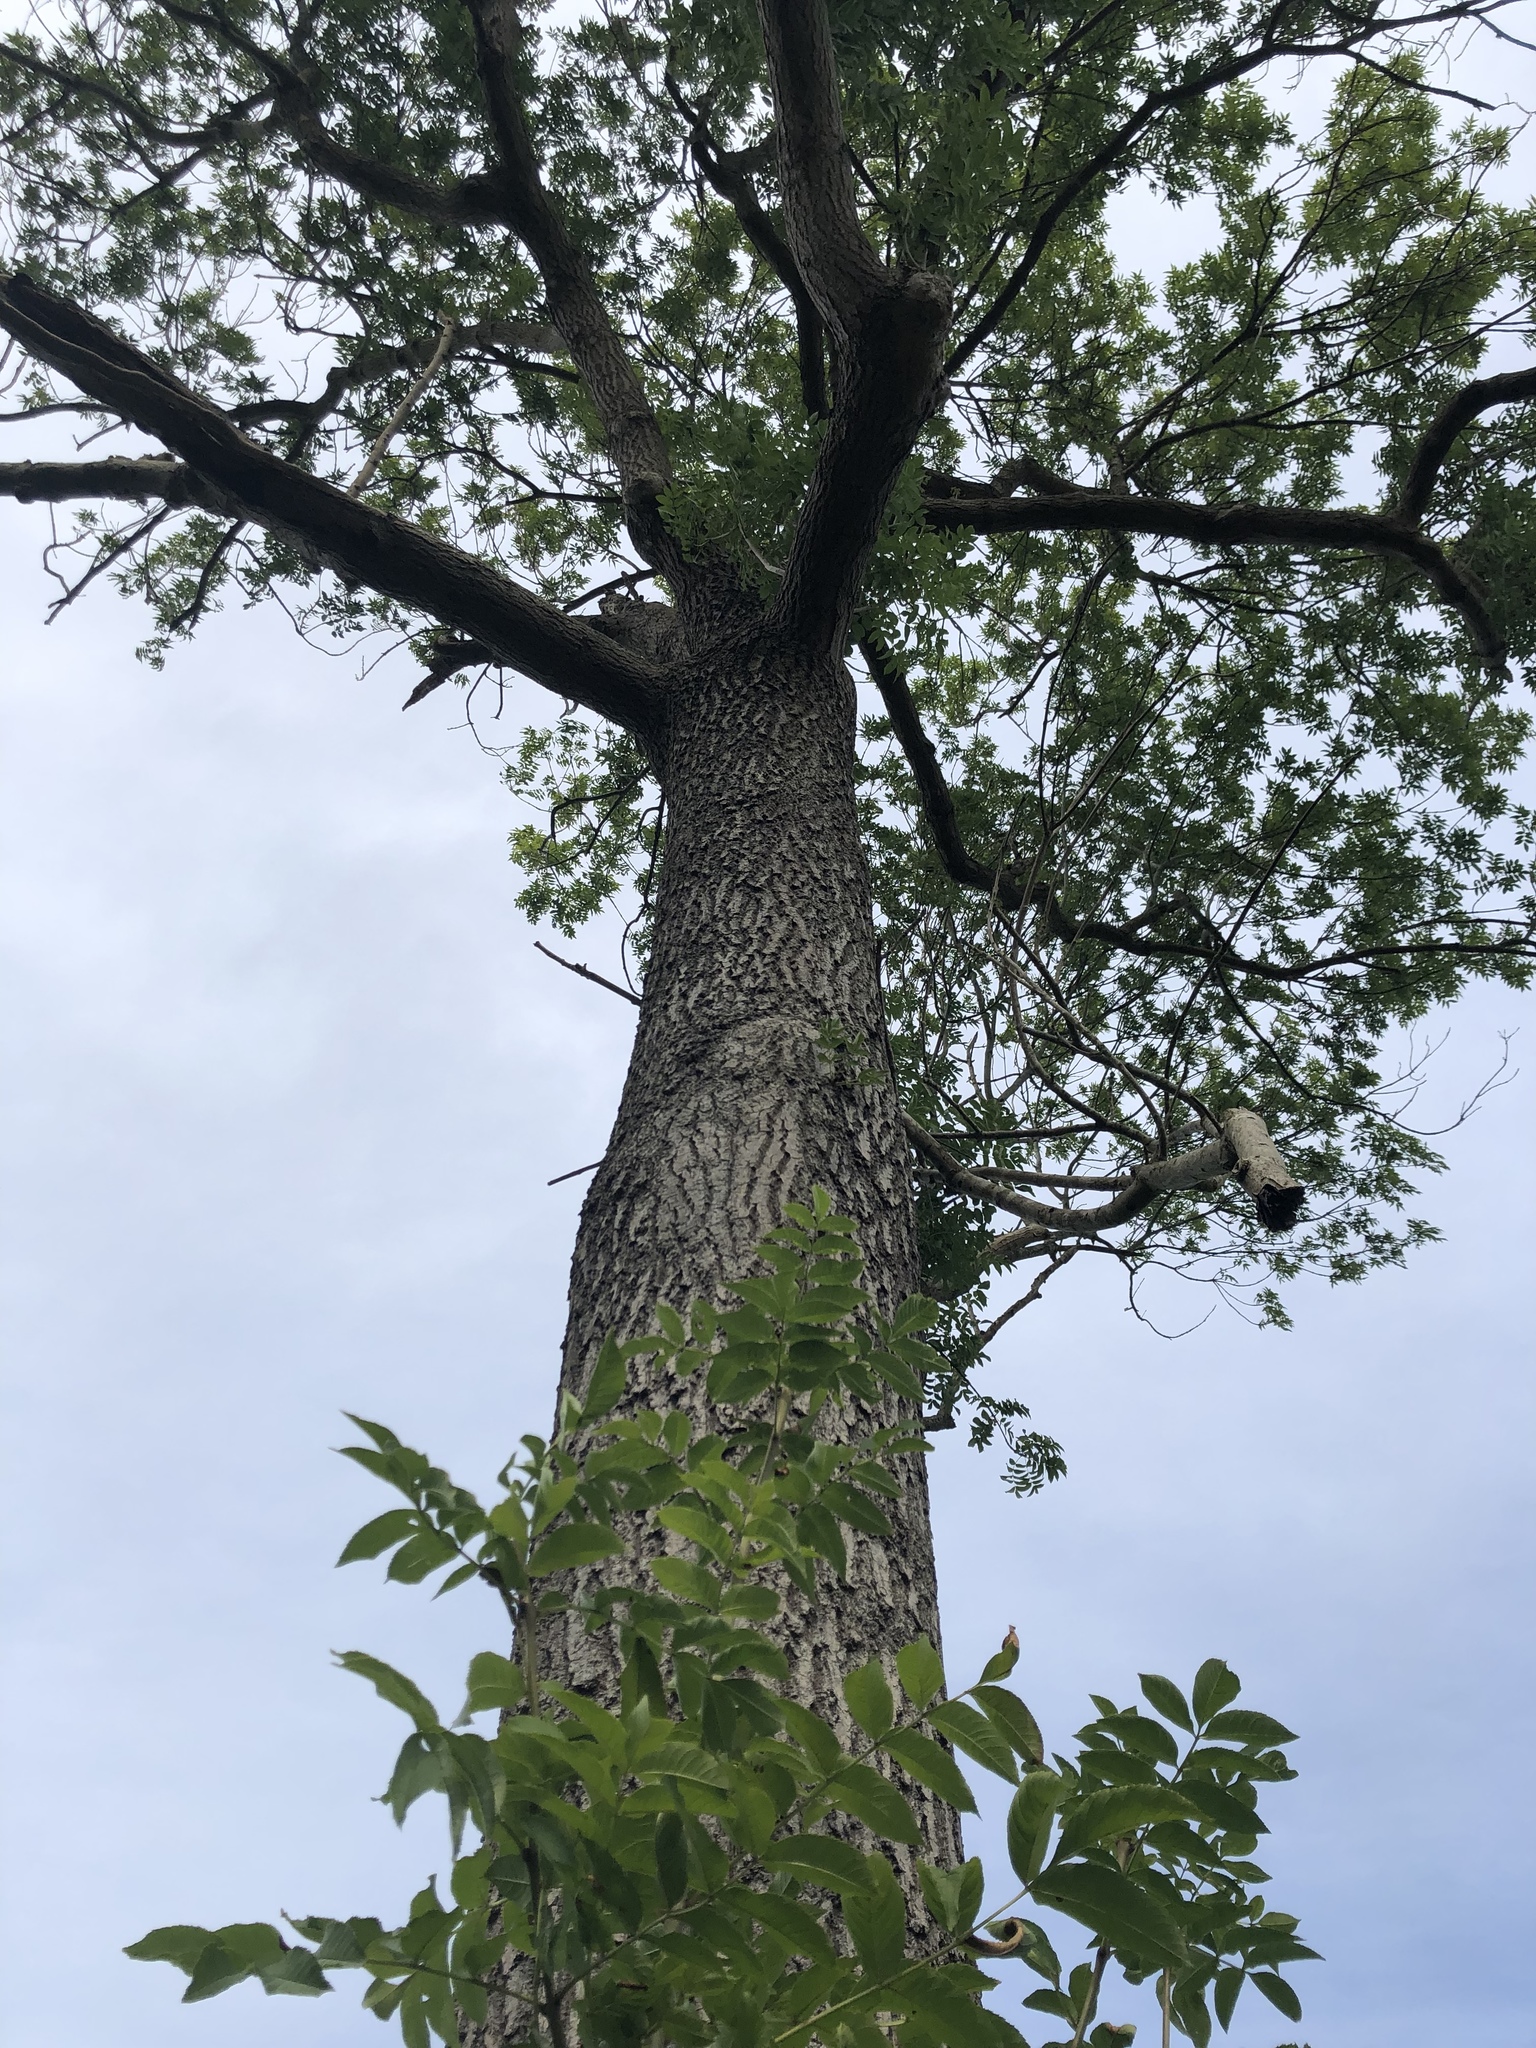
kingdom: Plantae
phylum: Tracheophyta
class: Magnoliopsida
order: Lamiales
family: Oleaceae
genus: Fraxinus
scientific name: Fraxinus excelsior
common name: European ash
